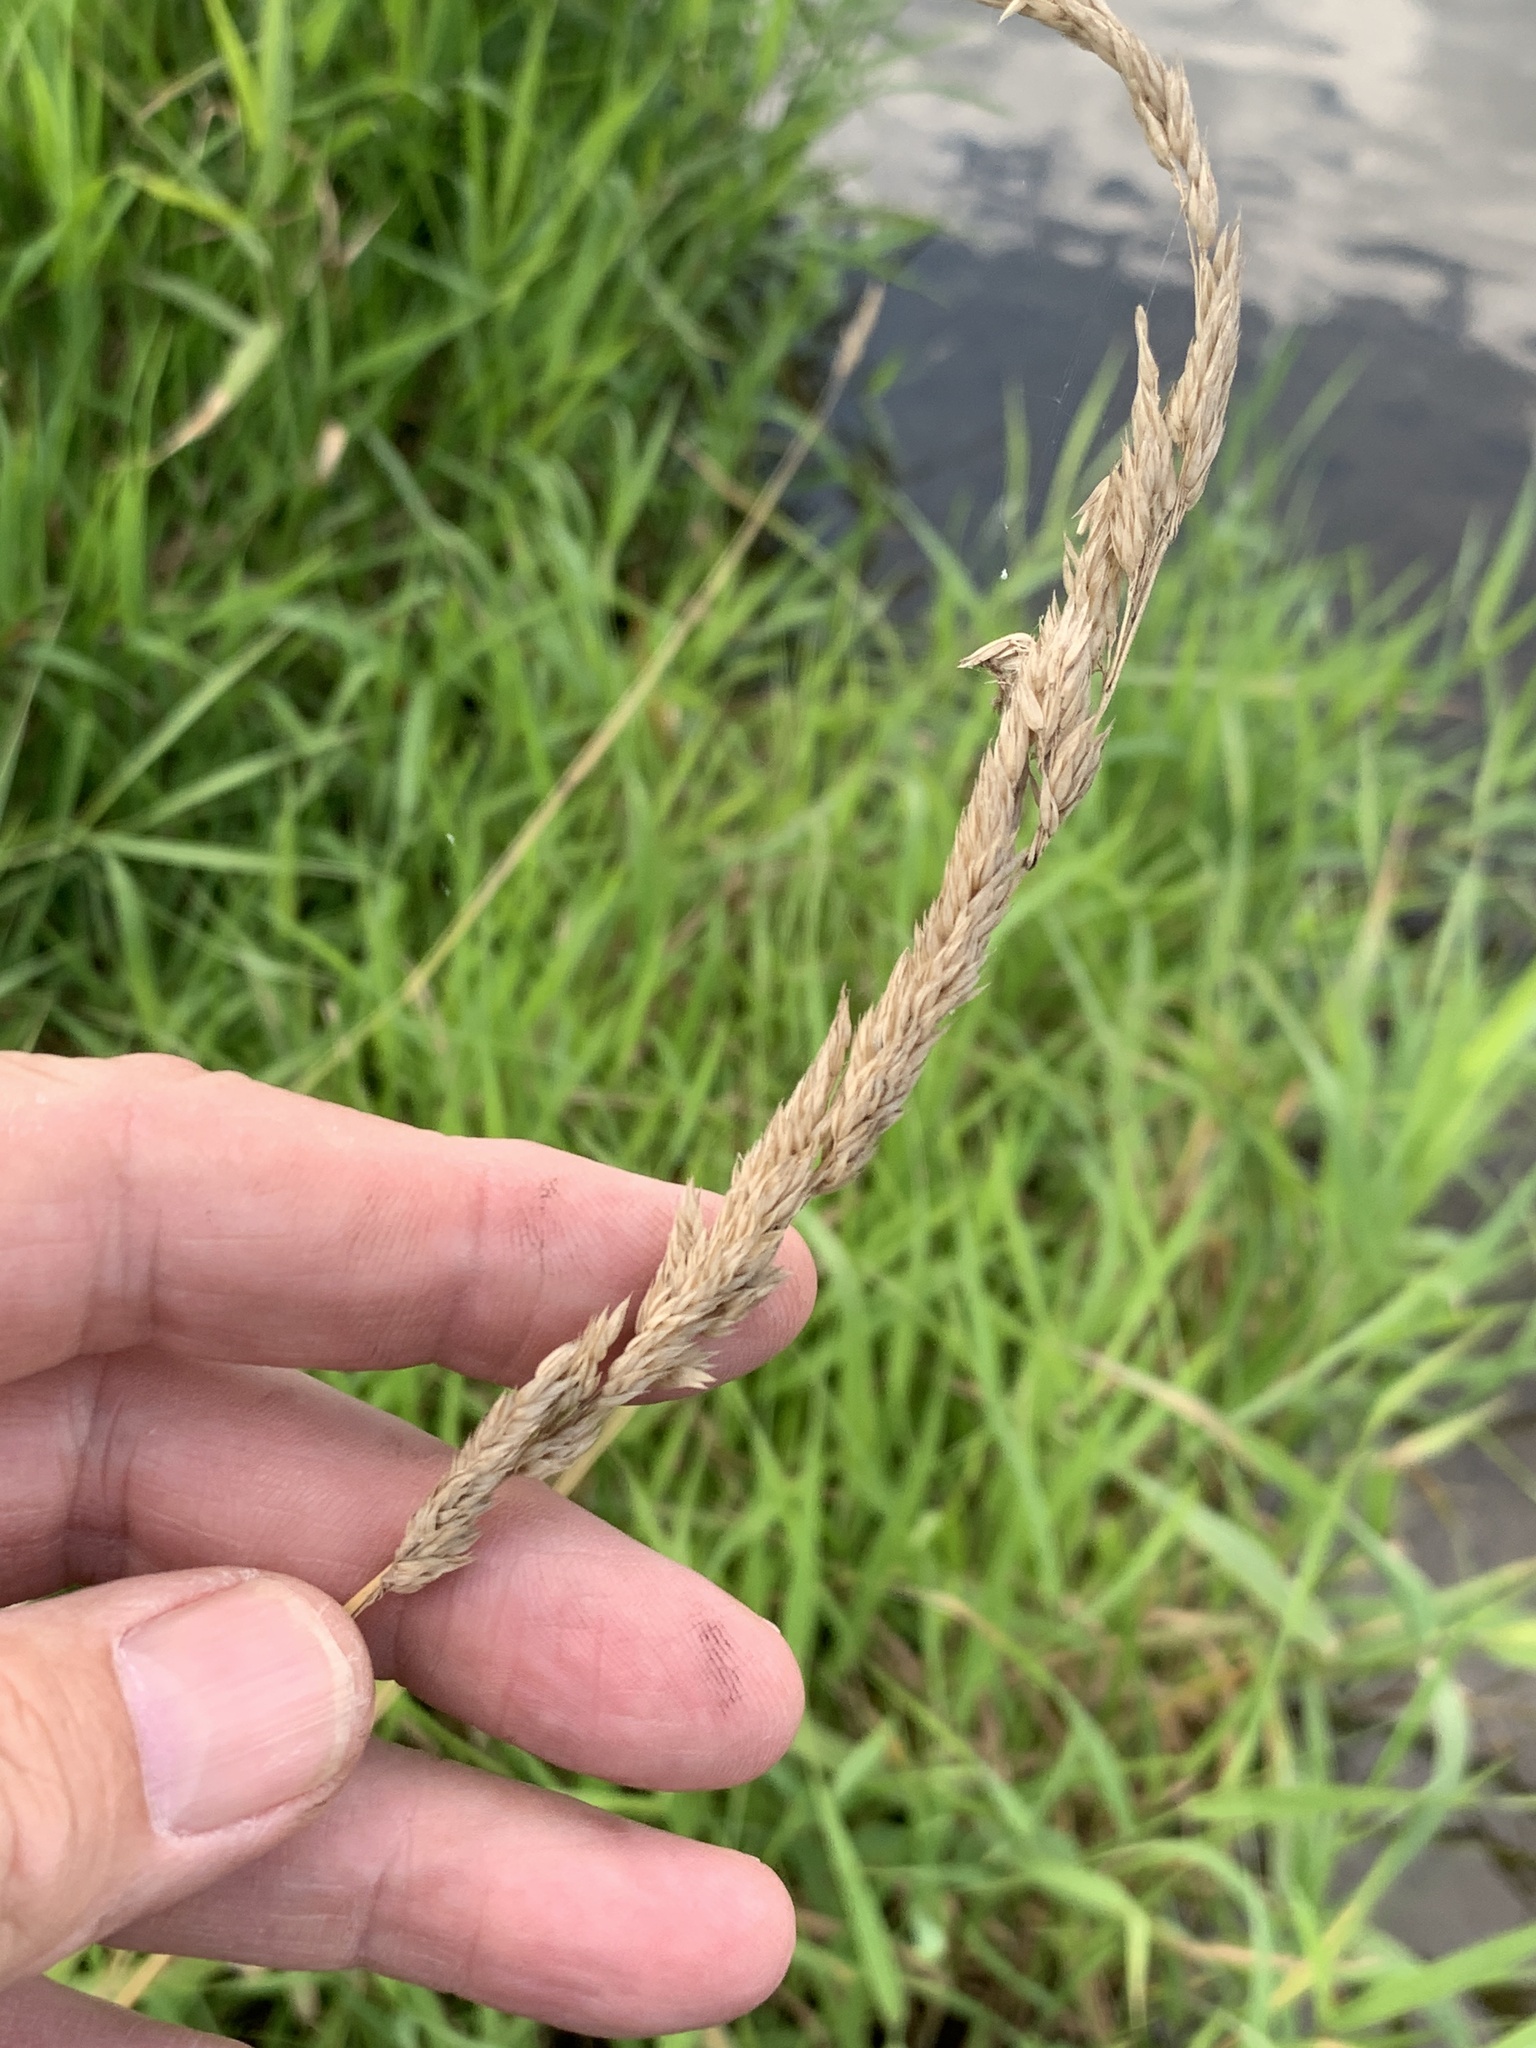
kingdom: Plantae
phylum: Tracheophyta
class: Liliopsida
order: Poales
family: Poaceae
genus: Phalaris
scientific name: Phalaris arundinacea
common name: Reed canary-grass
